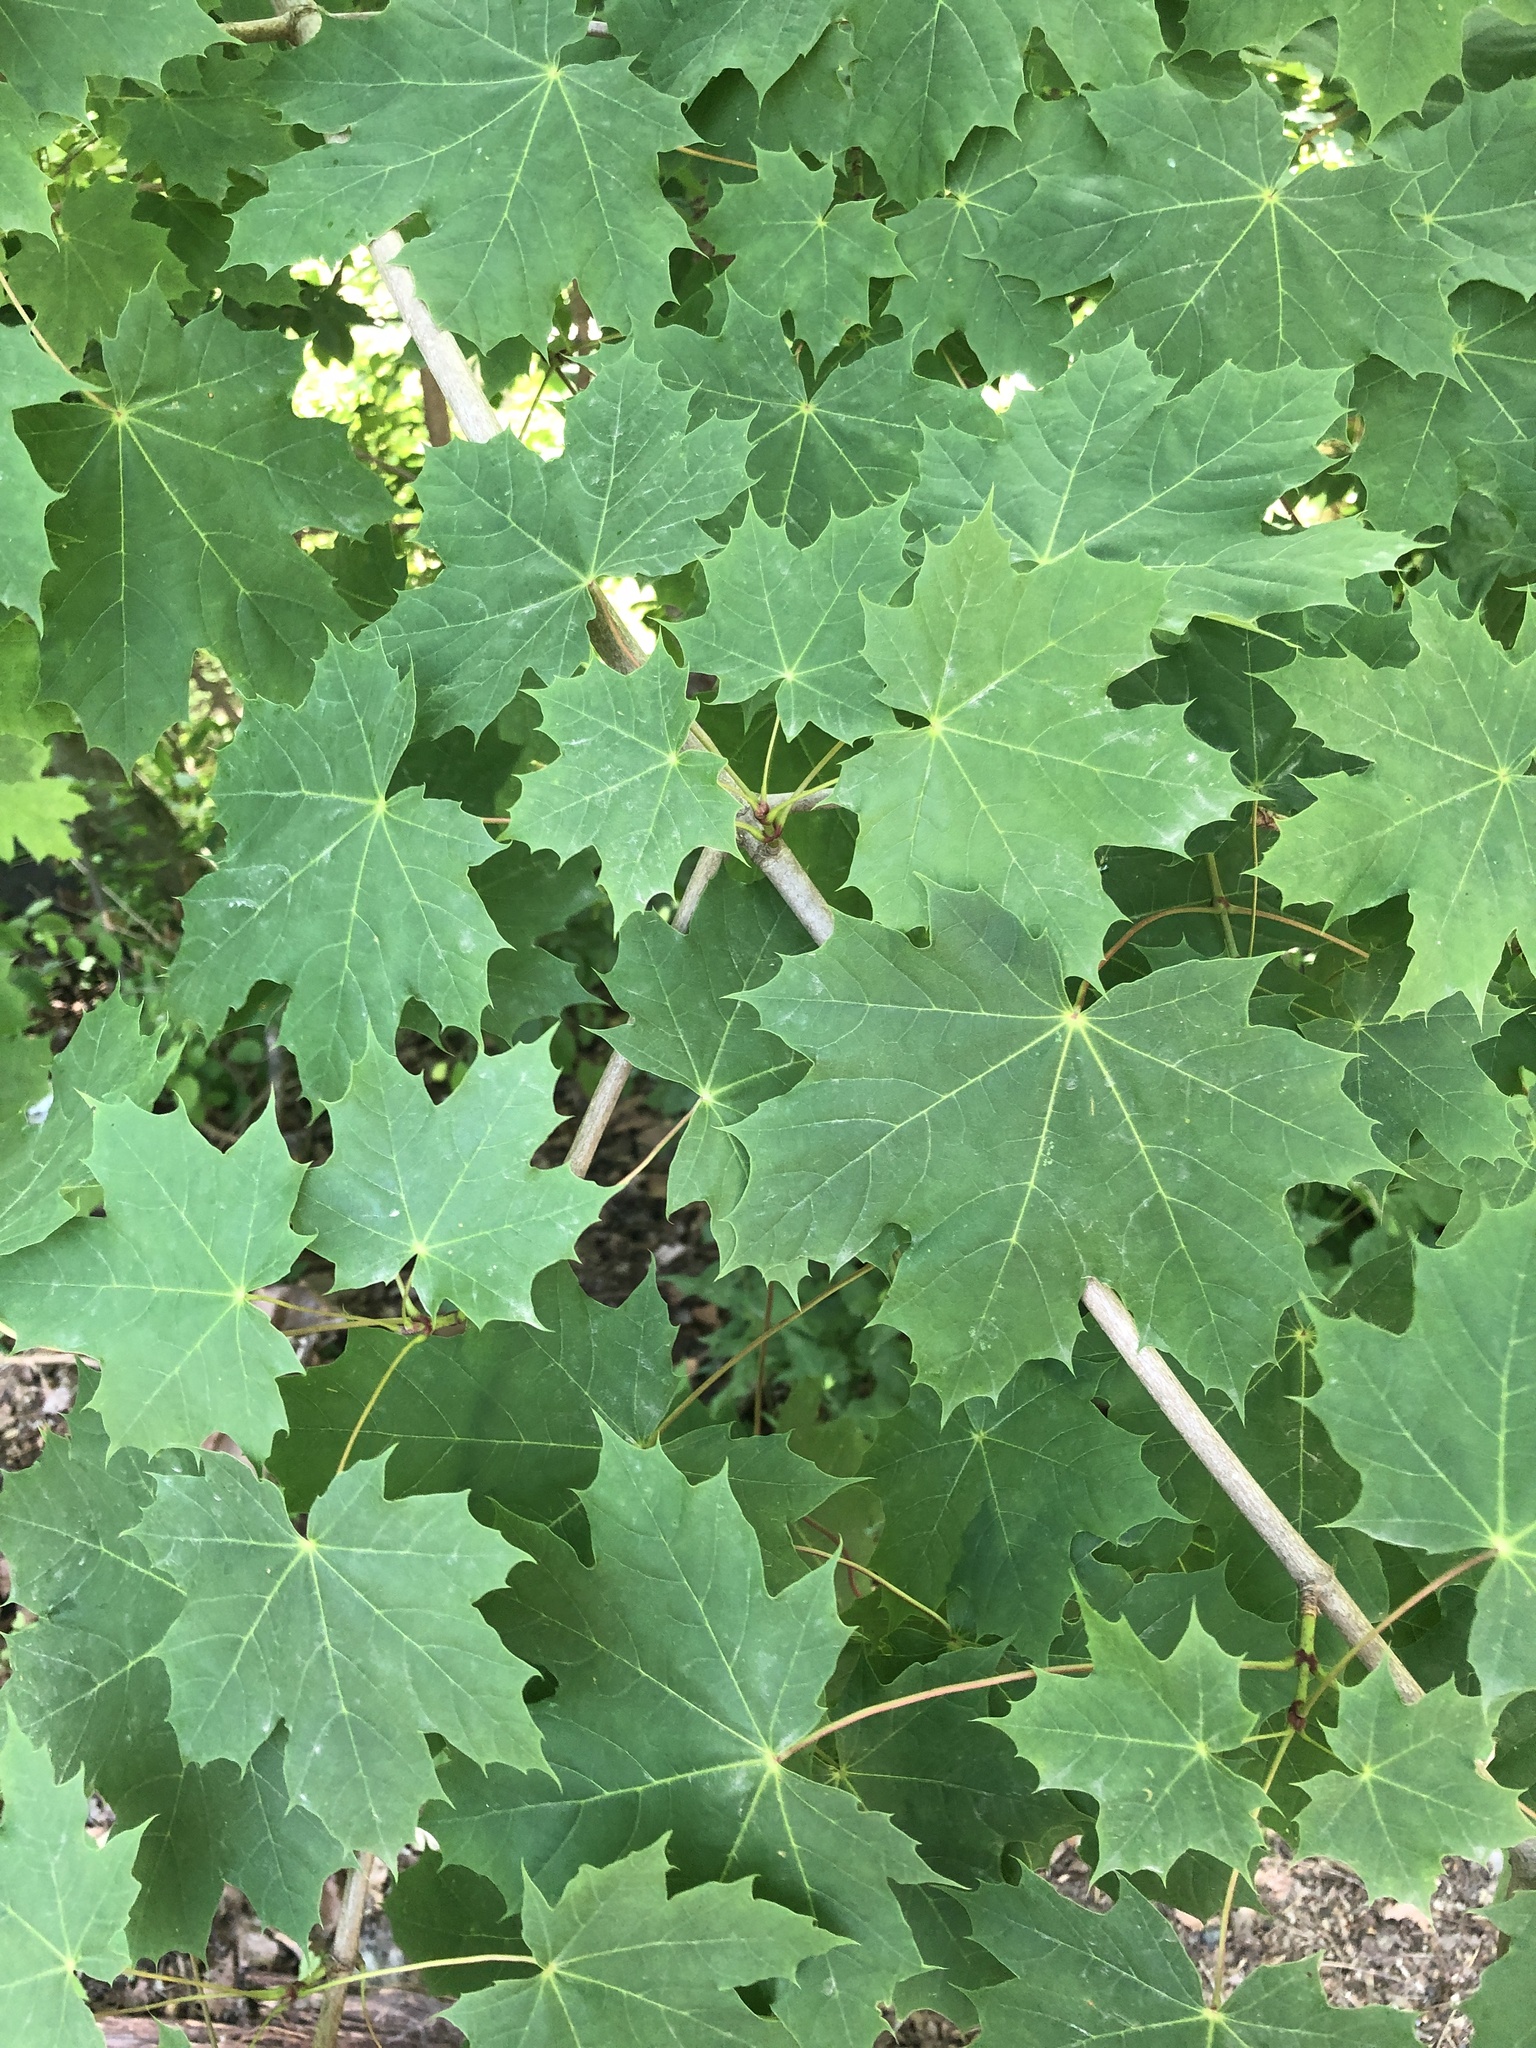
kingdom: Plantae
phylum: Tracheophyta
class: Magnoliopsida
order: Sapindales
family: Sapindaceae
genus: Acer
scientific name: Acer platanoides
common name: Norway maple
